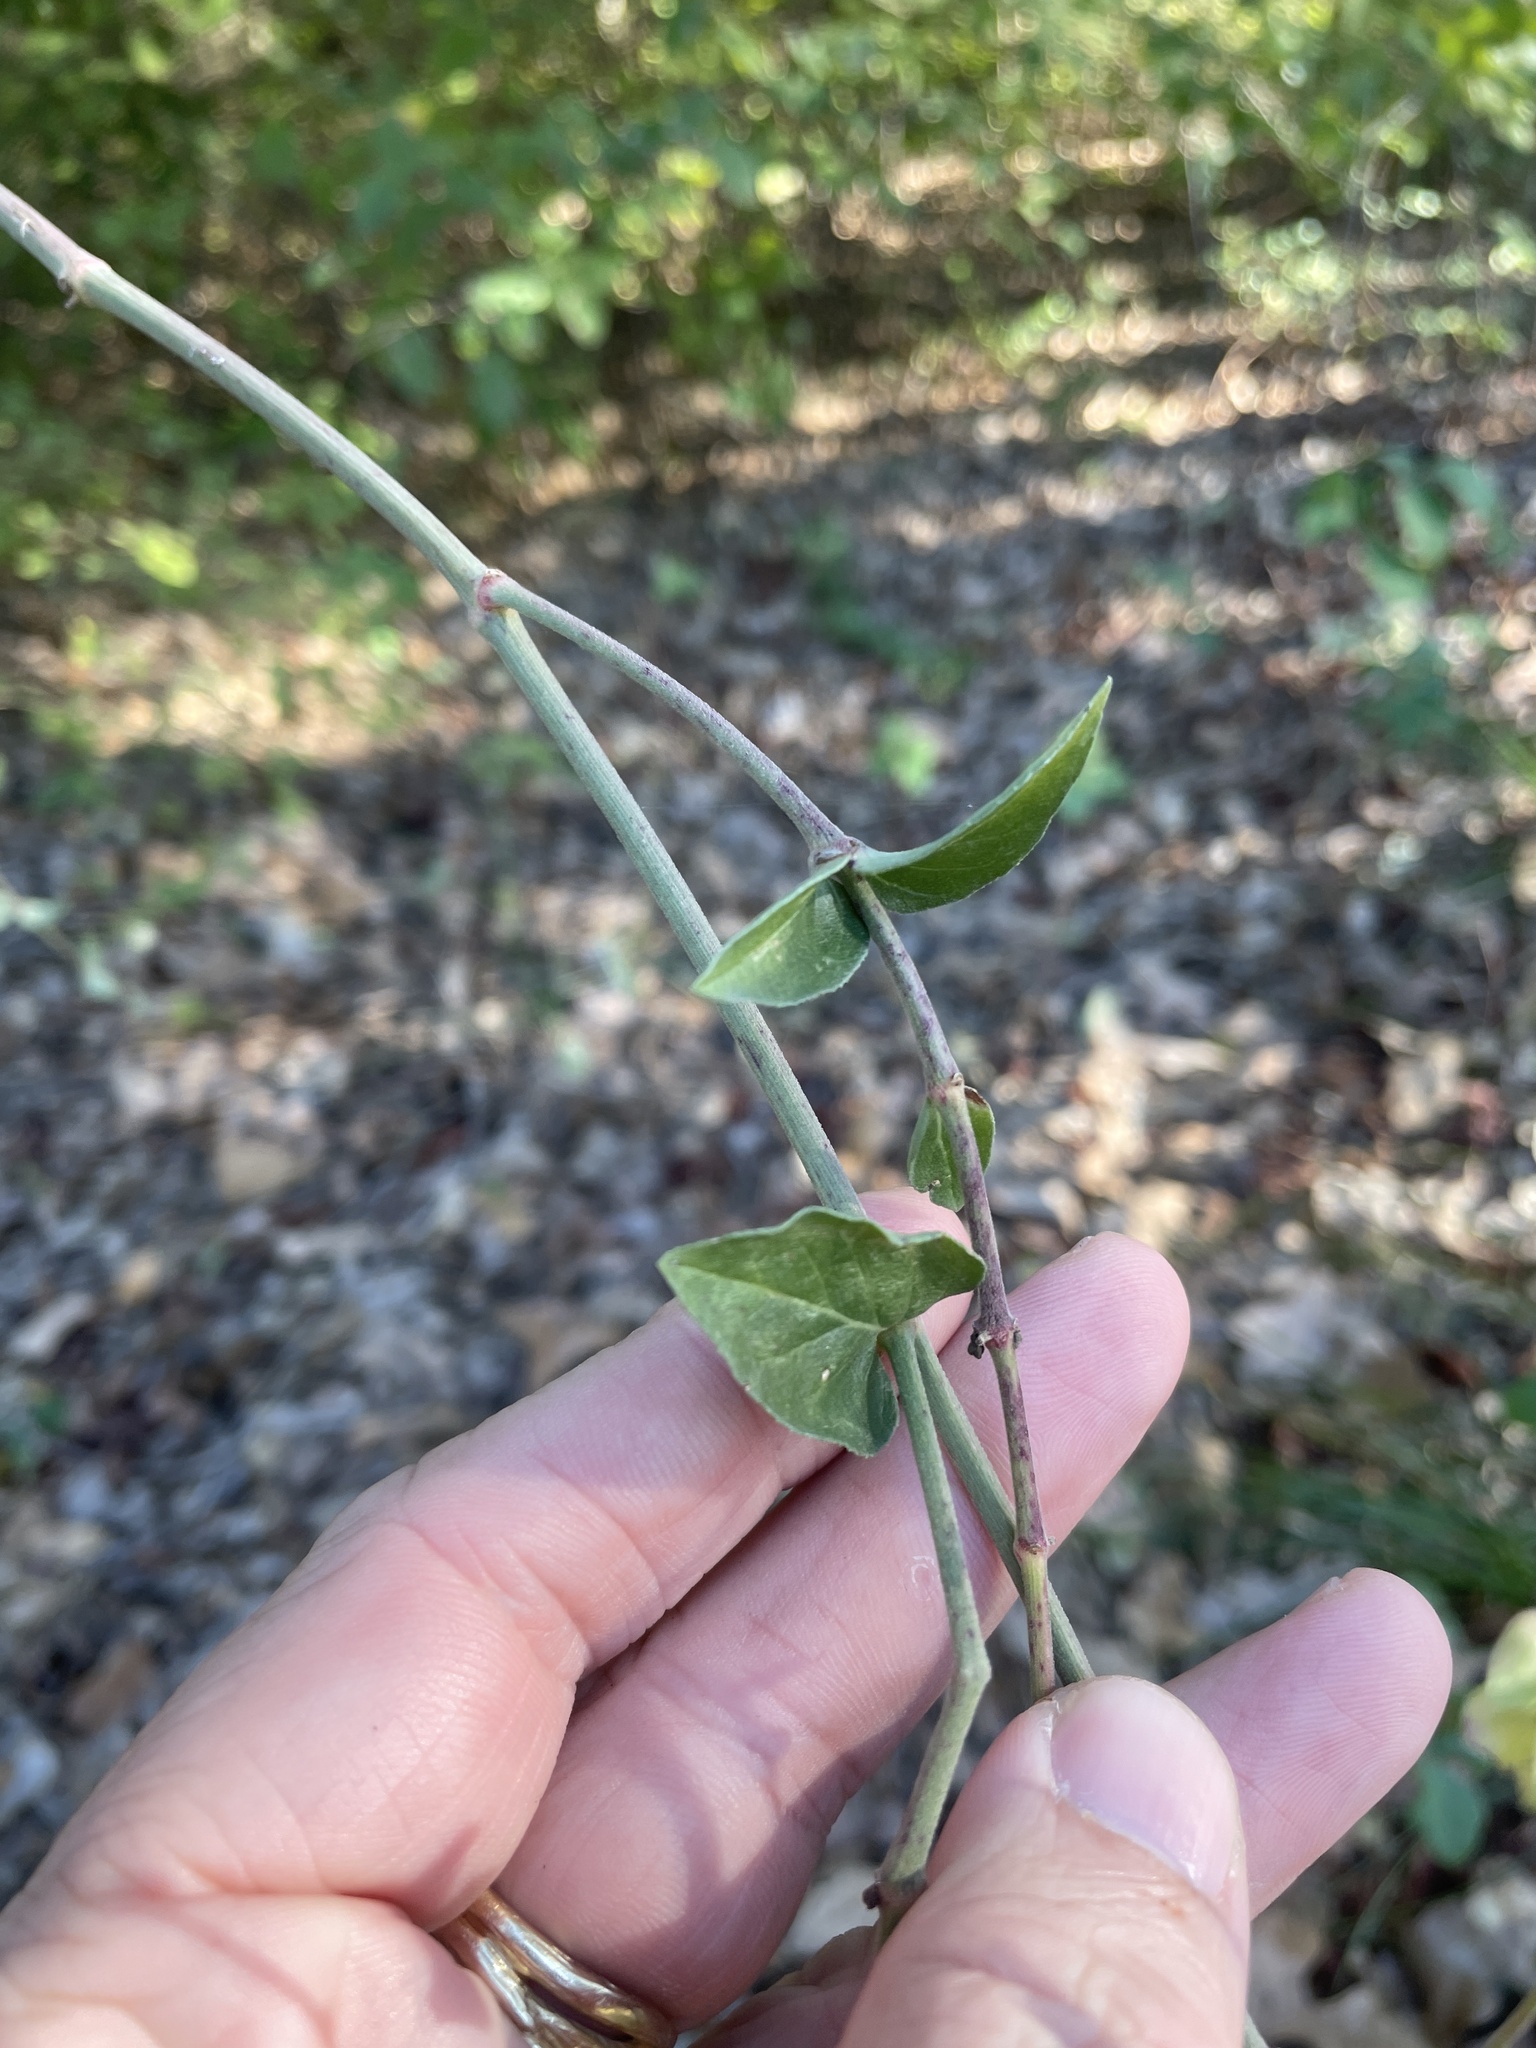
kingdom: Plantae
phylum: Tracheophyta
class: Magnoliopsida
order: Caryophyllales
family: Nyctaginaceae
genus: Mirabilis
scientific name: Mirabilis albida
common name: Hairy four-o'clock
